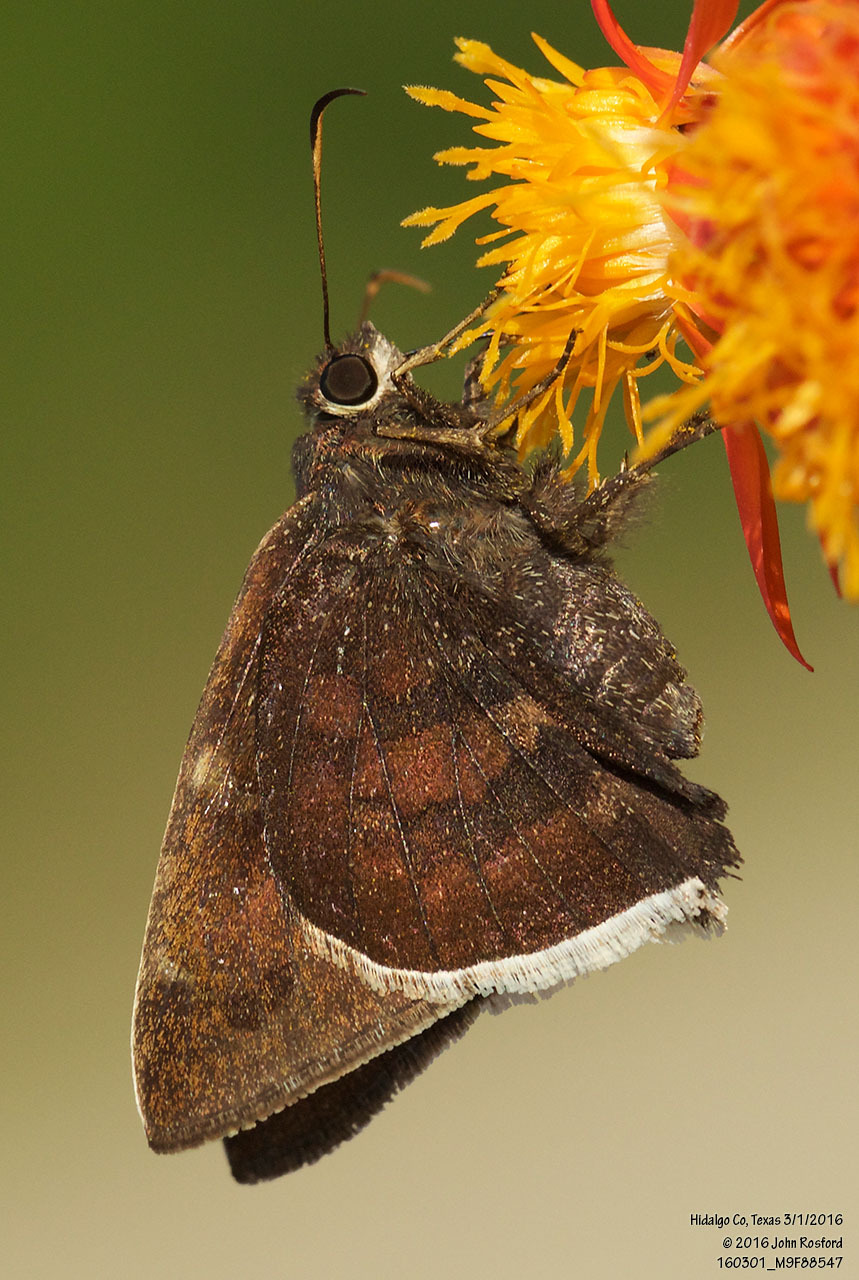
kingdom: Animalia
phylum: Arthropoda
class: Insecta
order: Lepidoptera
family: Hesperiidae
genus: Achalarus
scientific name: Achalarus Murgaria albociliatus
